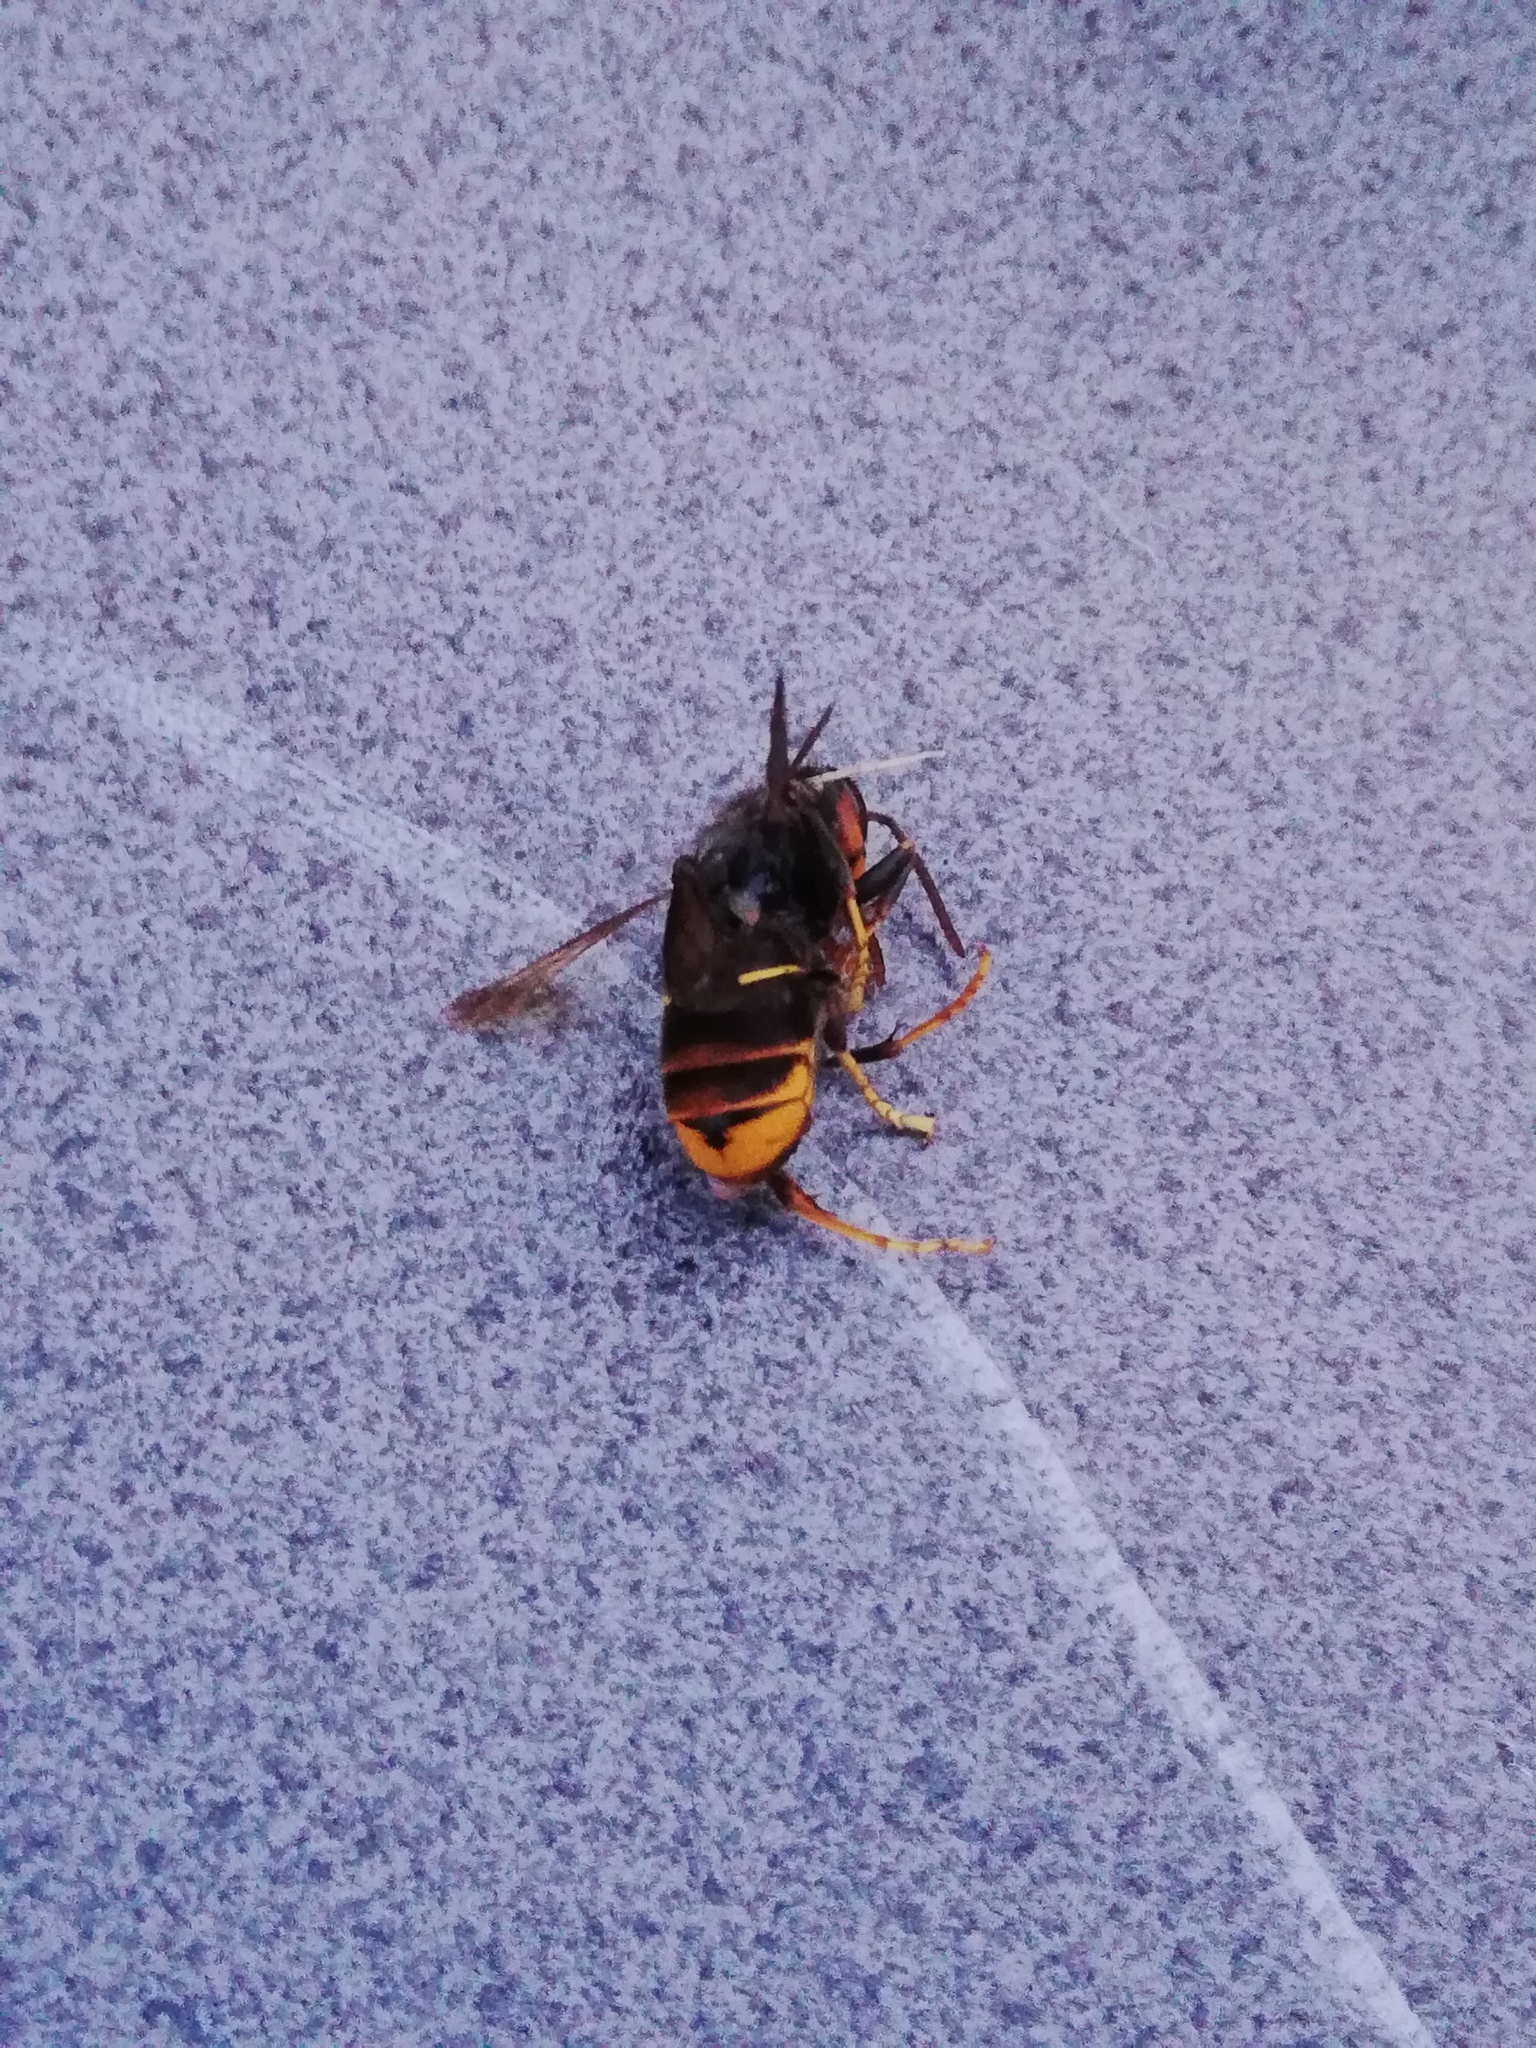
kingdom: Animalia
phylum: Arthropoda
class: Insecta
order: Hymenoptera
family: Vespidae
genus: Vespa
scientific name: Vespa velutina
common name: Asian hornet
